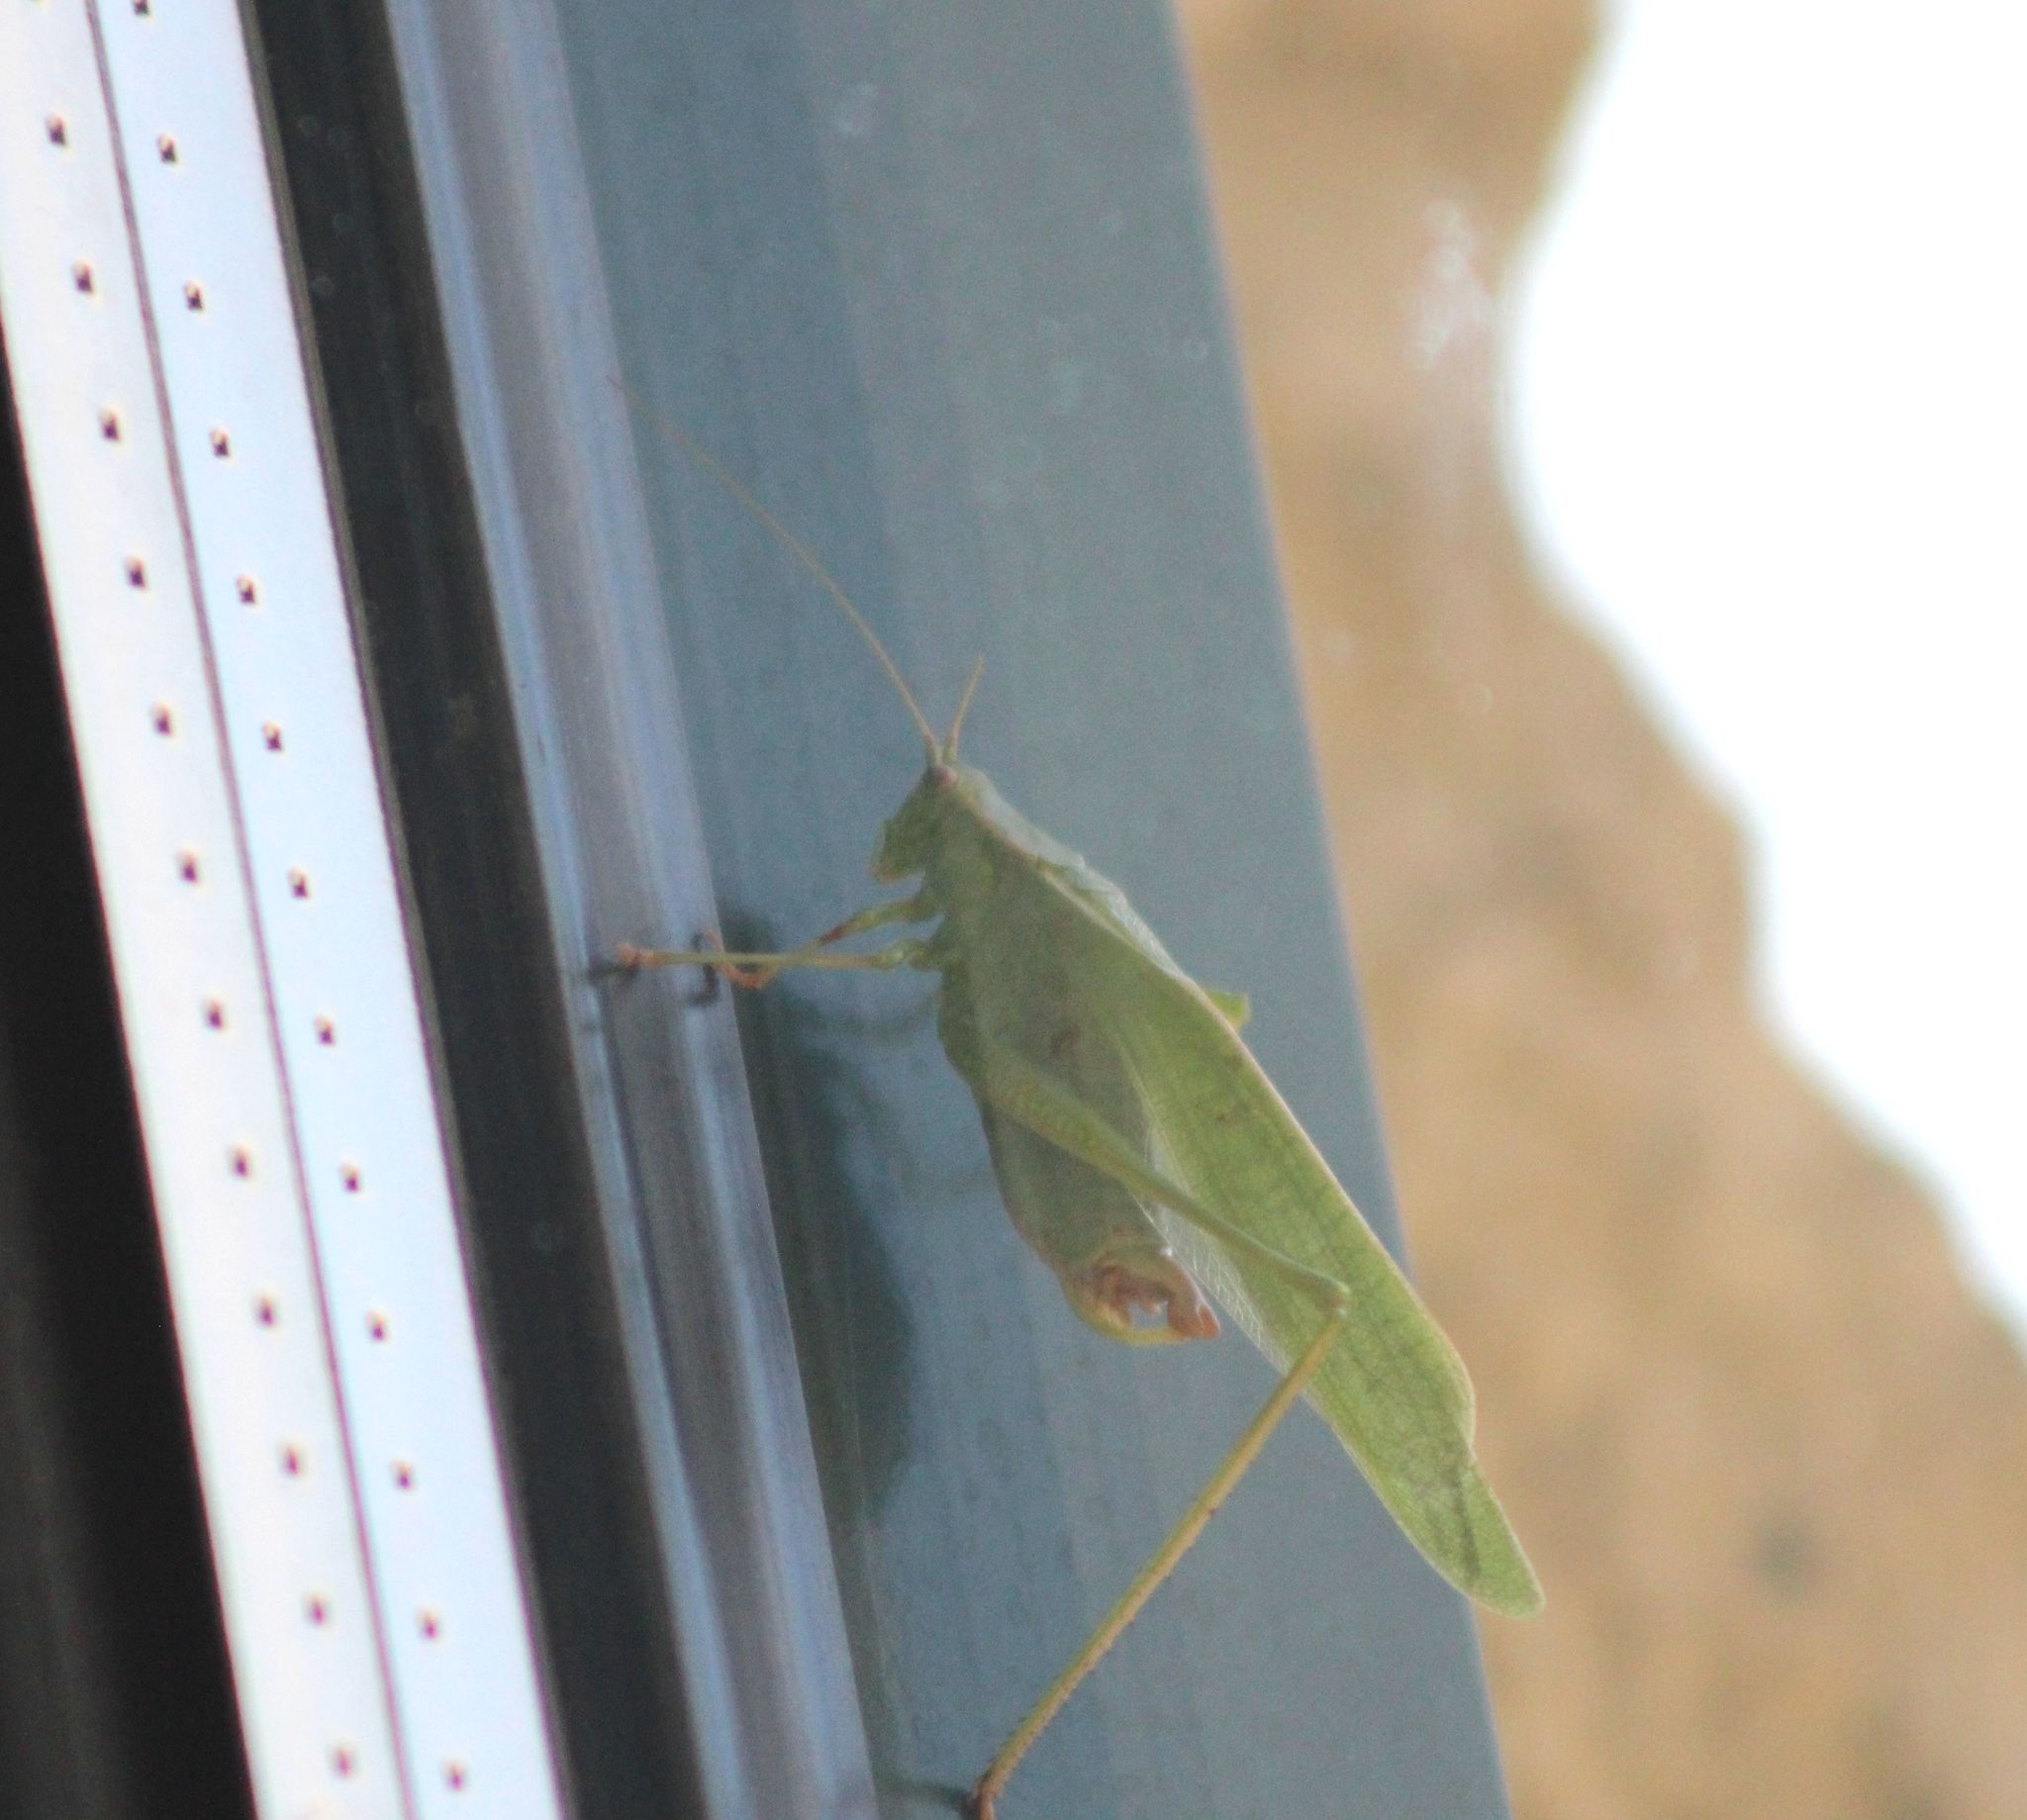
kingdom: Animalia
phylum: Arthropoda
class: Insecta
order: Orthoptera
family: Tettigoniidae
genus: Scudderia
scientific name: Scudderia furcata
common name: Fork-tailed bush katydid
